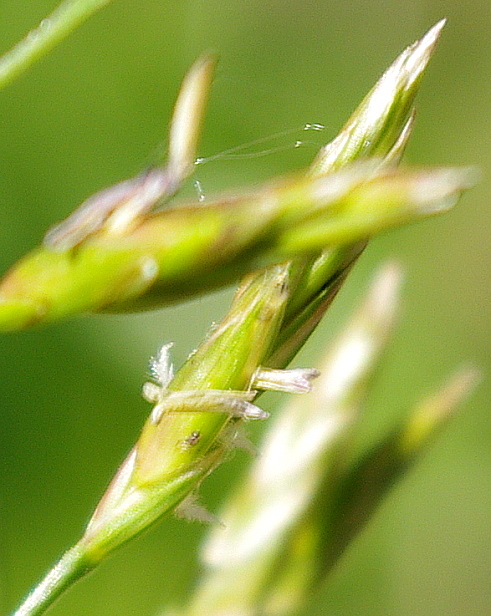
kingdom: Plantae
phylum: Tracheophyta
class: Liliopsida
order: Poales
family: Poaceae
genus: Lolium
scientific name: Lolium pratense
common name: Dover grass
